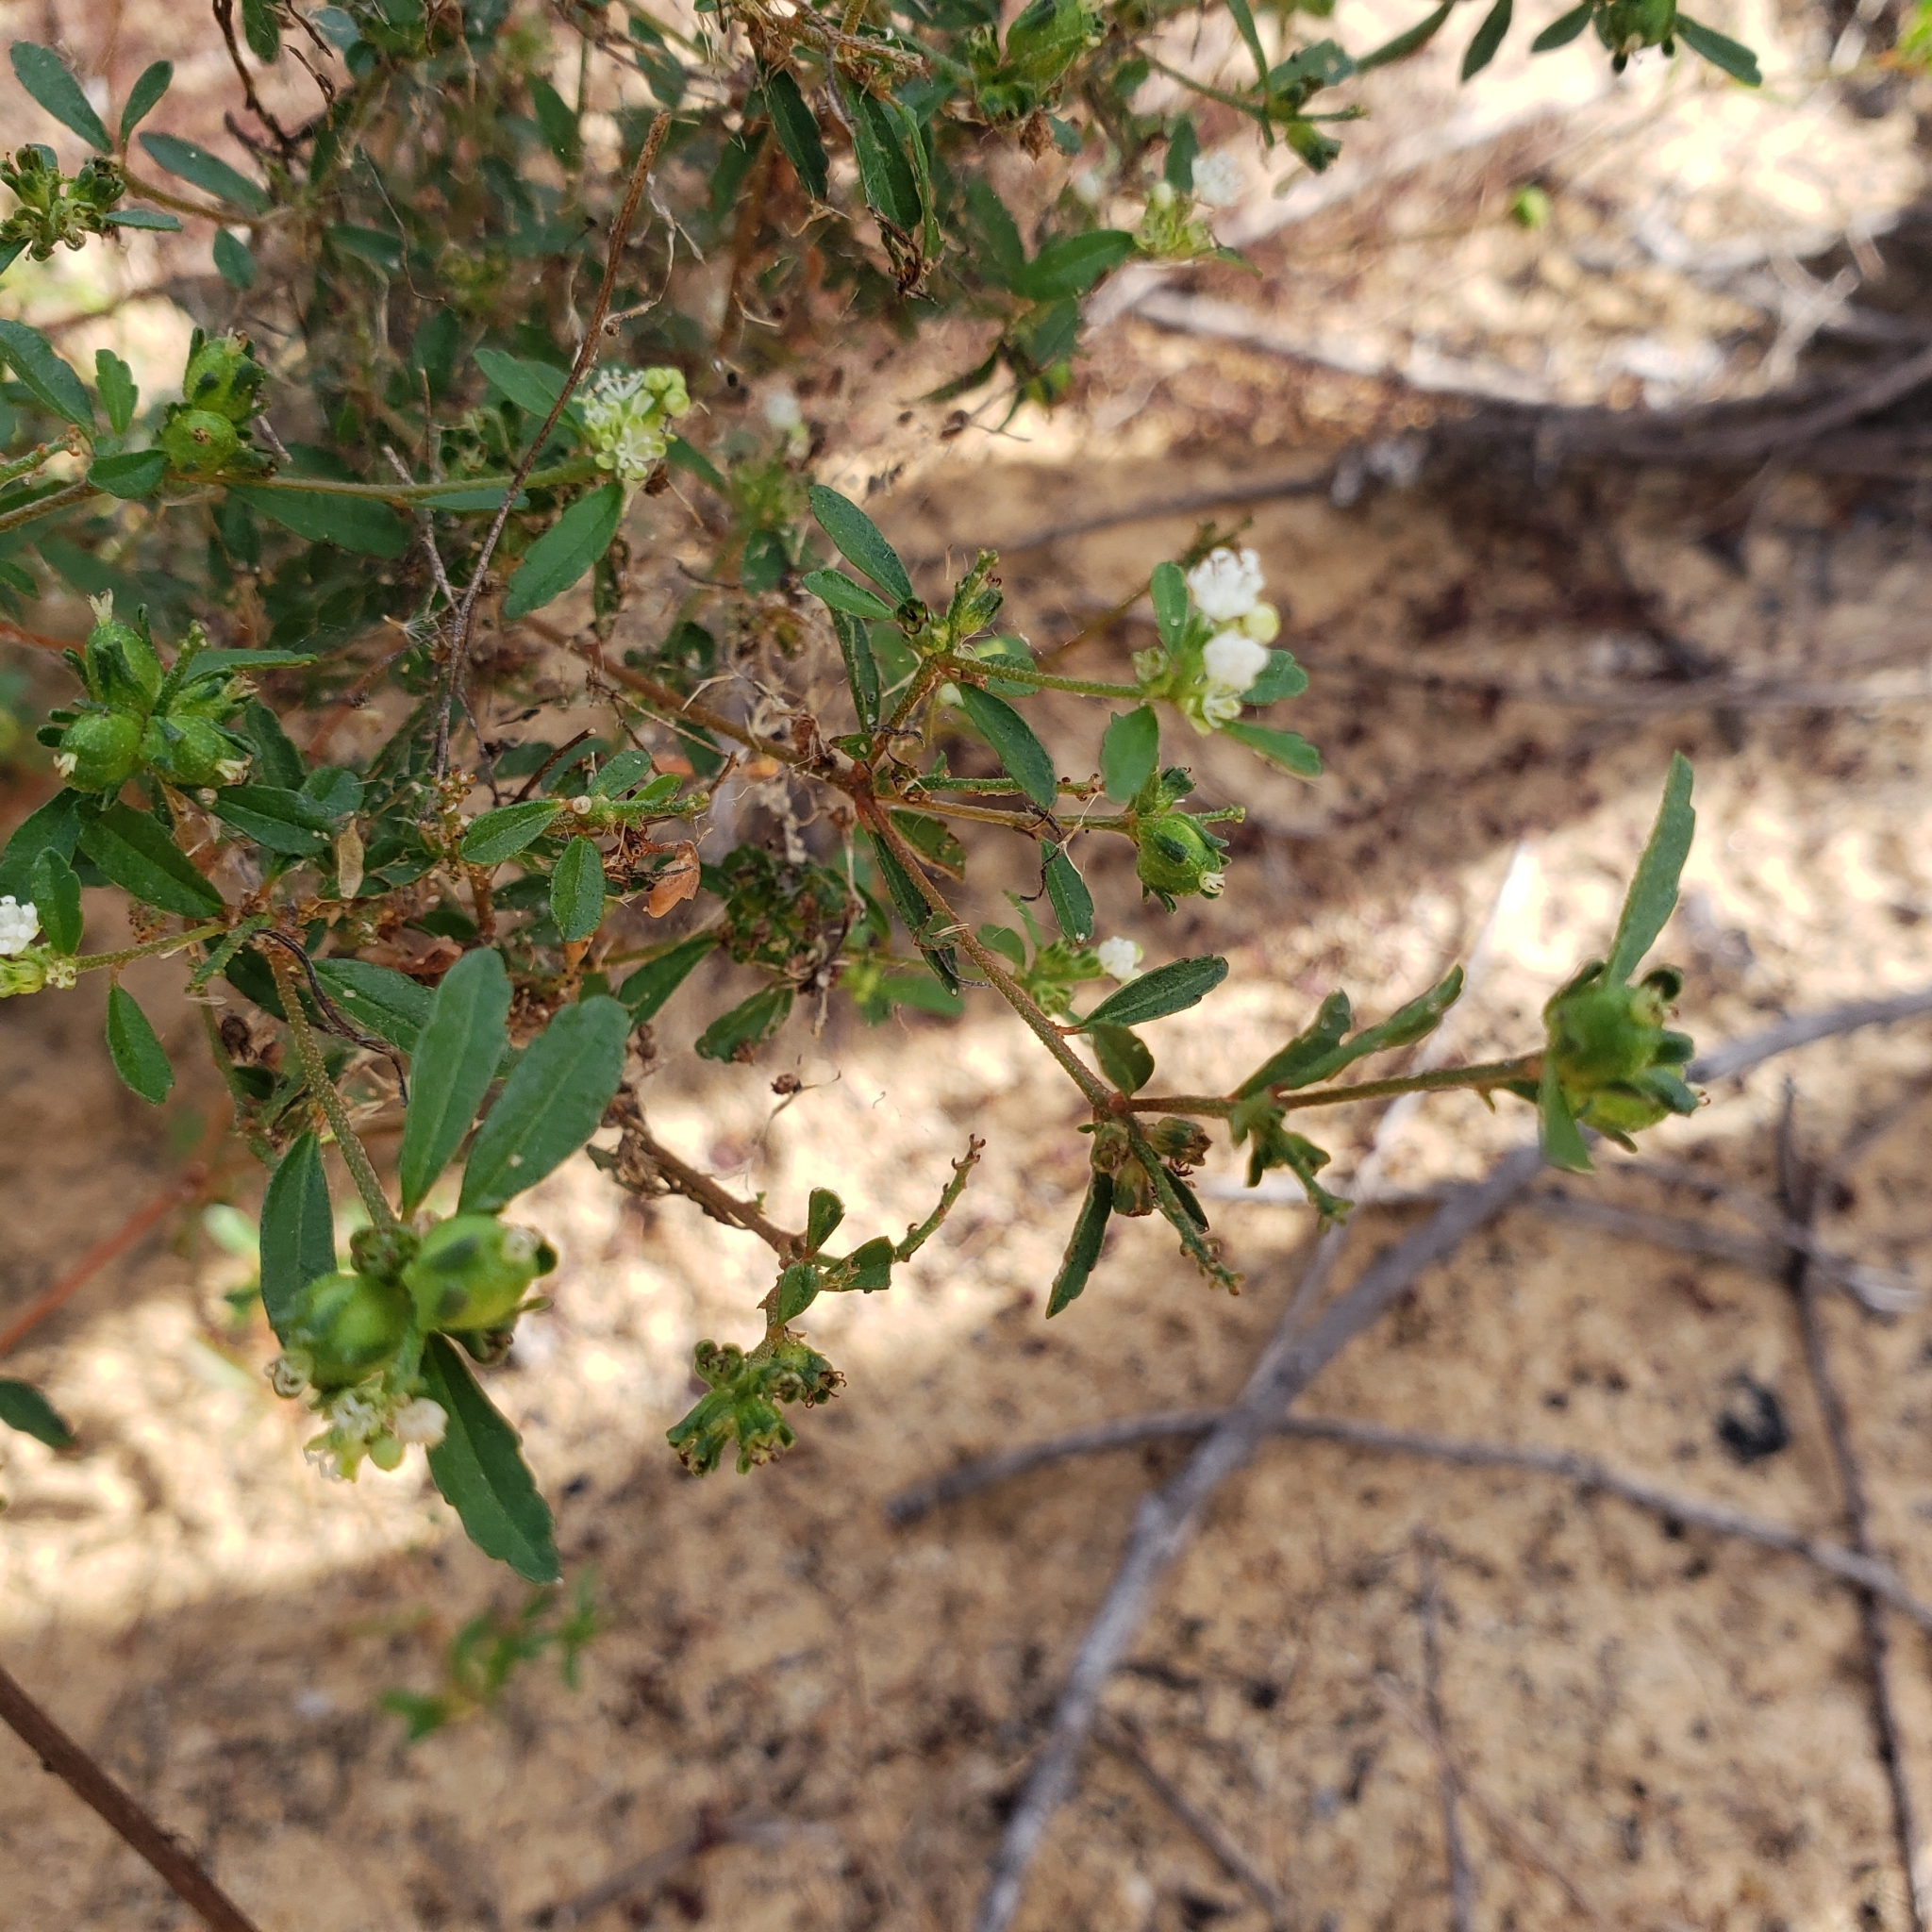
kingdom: Plantae
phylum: Tracheophyta
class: Magnoliopsida
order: Malpighiales
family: Euphorbiaceae
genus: Croton
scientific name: Croton glandulosus
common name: Tropic croton
